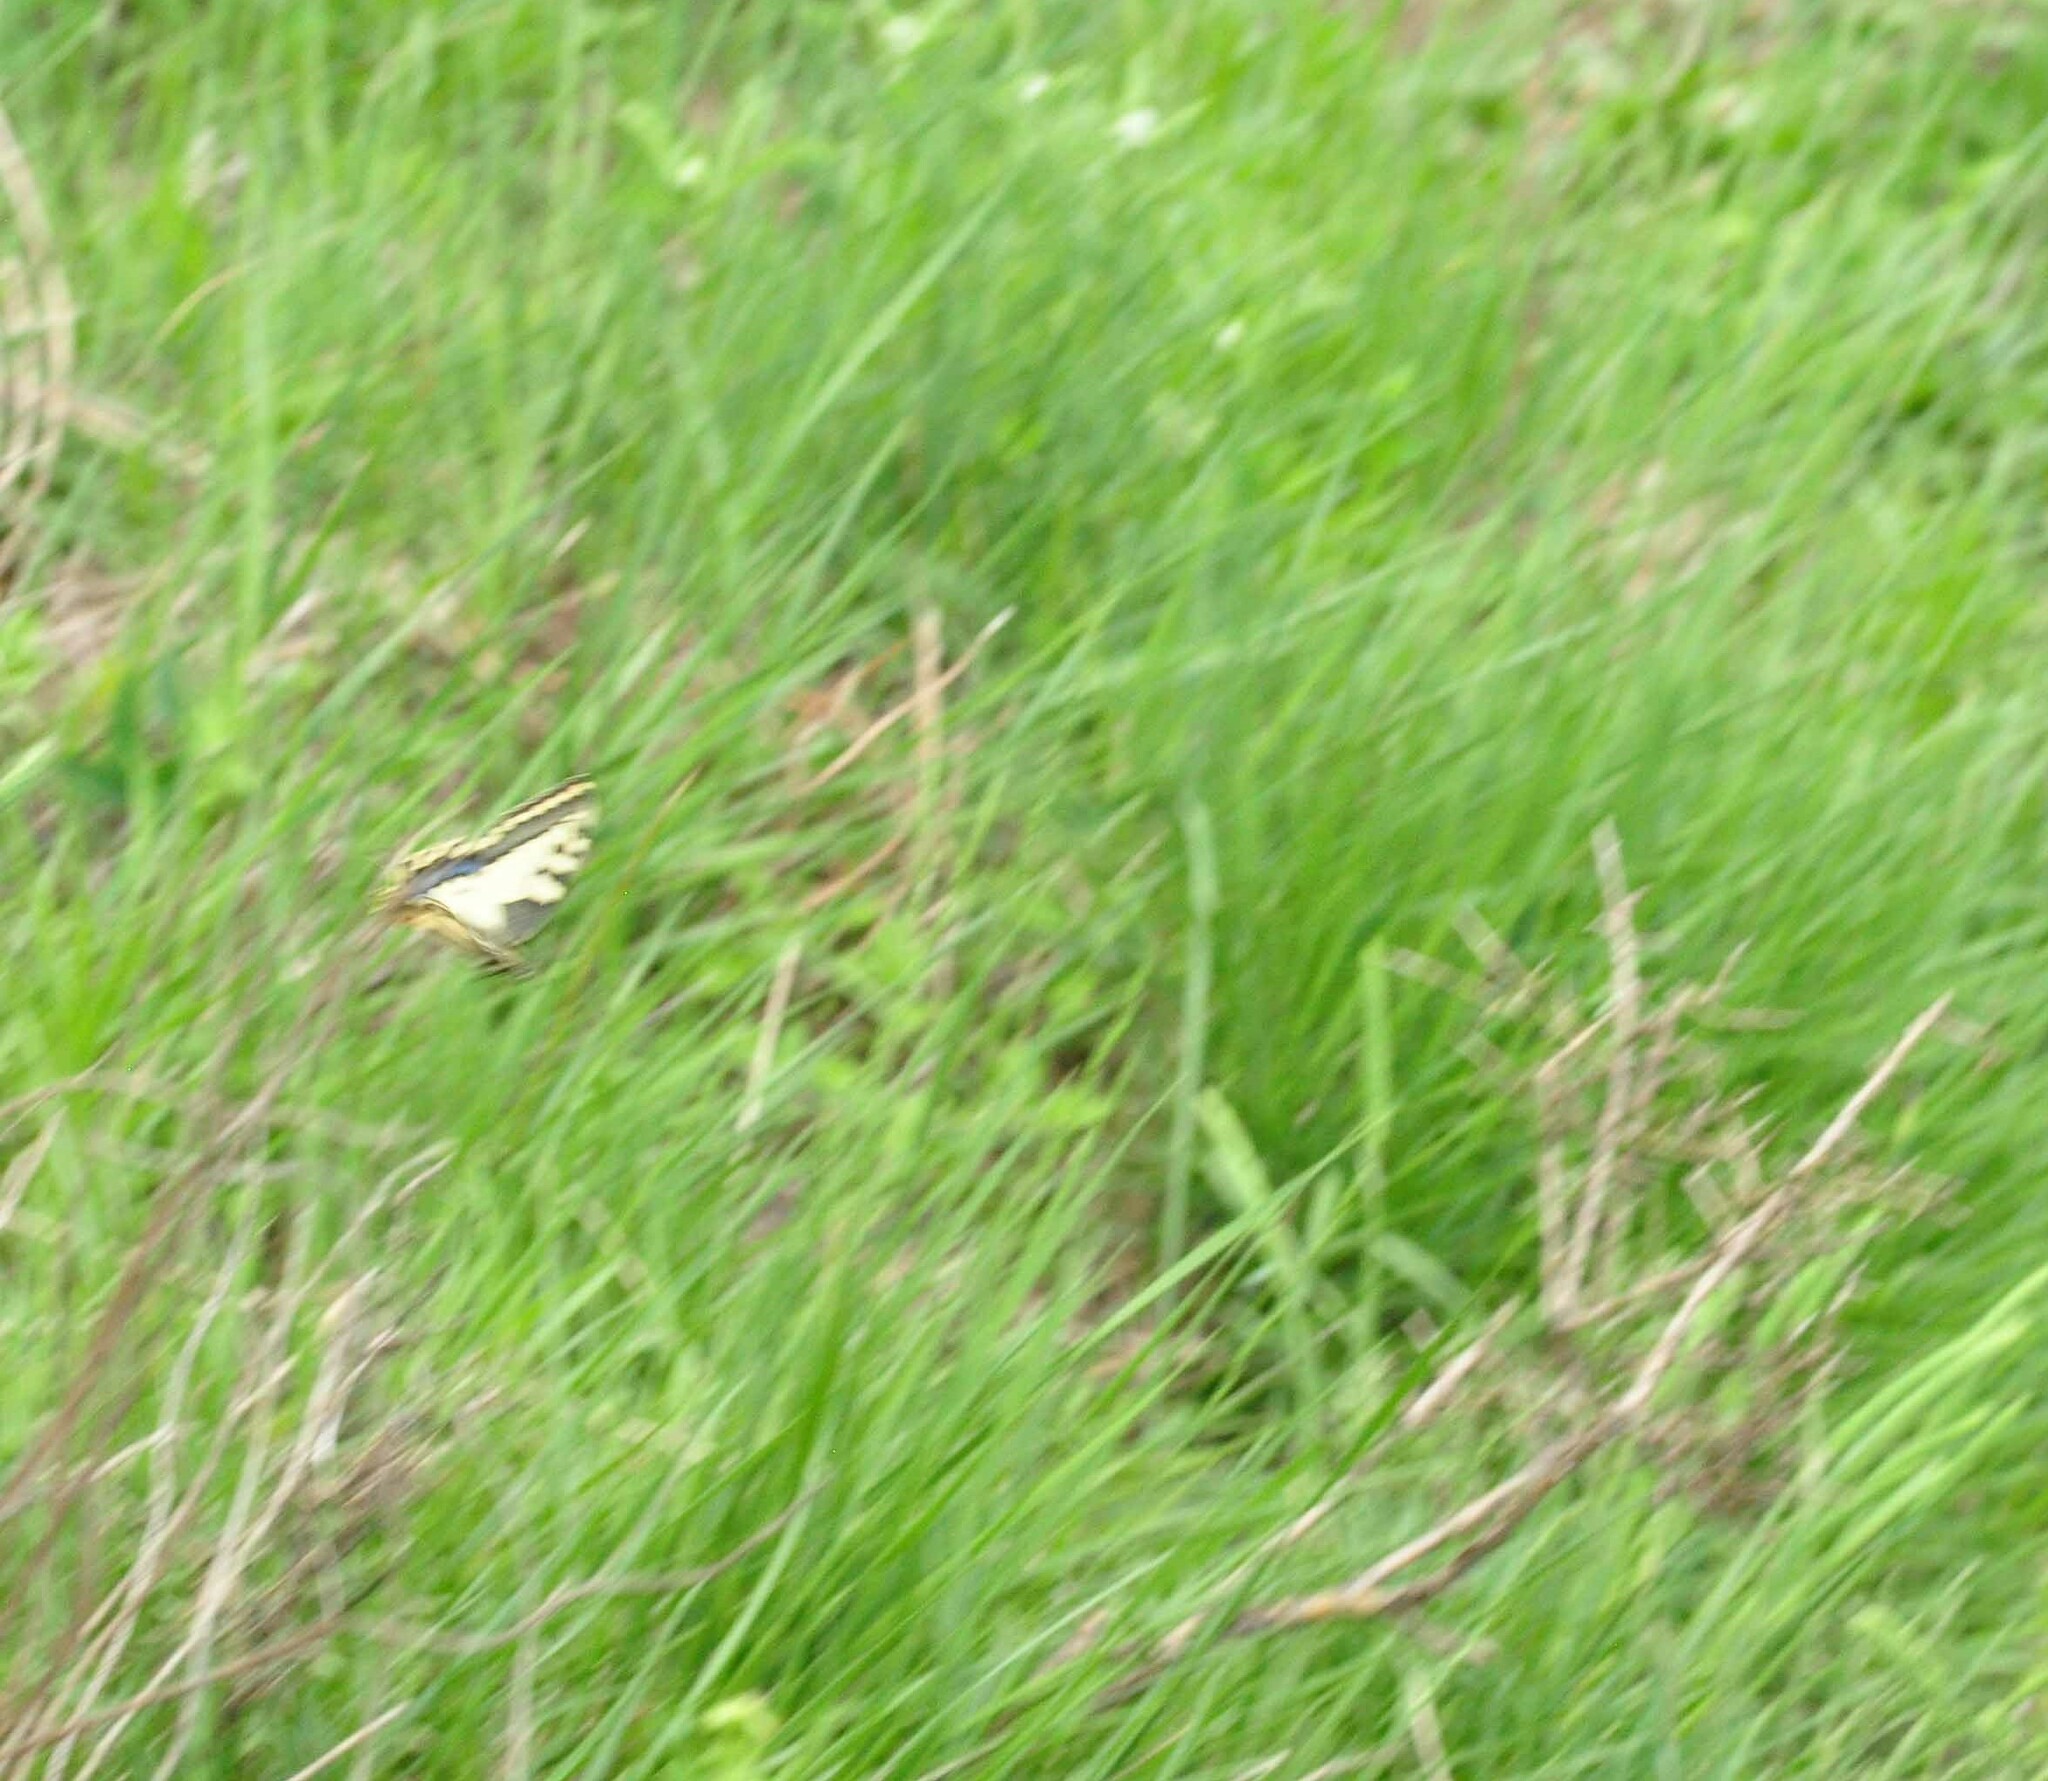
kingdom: Animalia
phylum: Arthropoda
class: Insecta
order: Lepidoptera
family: Papilionidae
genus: Papilio
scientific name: Papilio machaon
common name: Swallowtail
